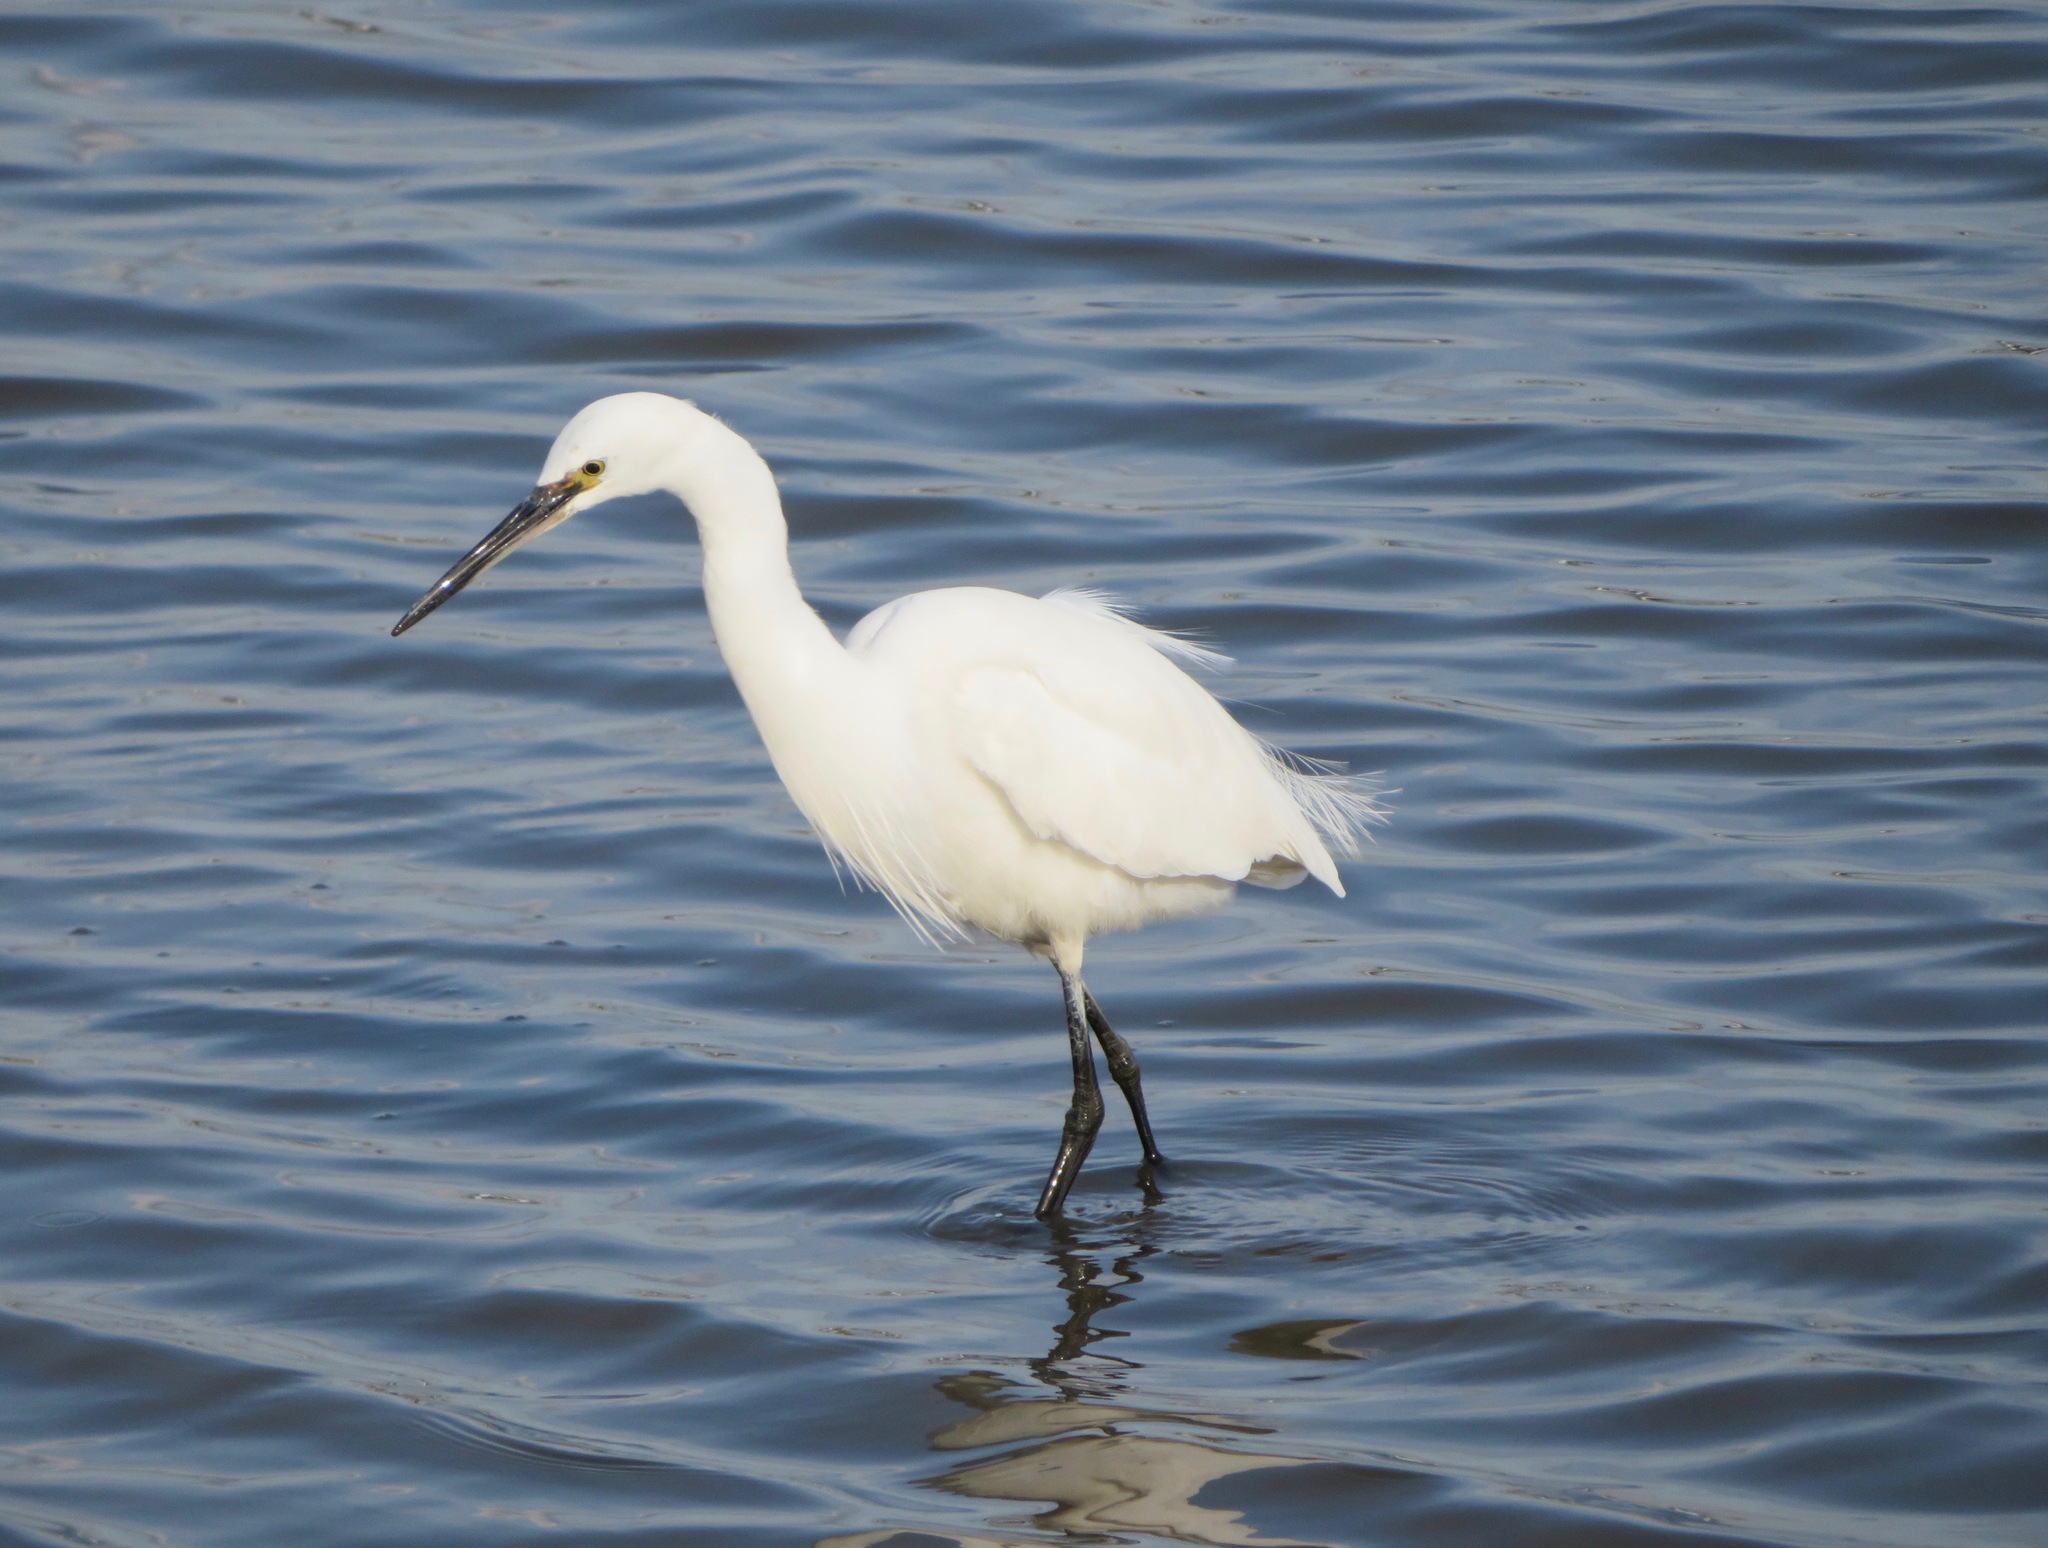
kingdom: Animalia
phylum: Chordata
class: Aves
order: Pelecaniformes
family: Ardeidae
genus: Egretta
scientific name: Egretta garzetta
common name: Little egret
